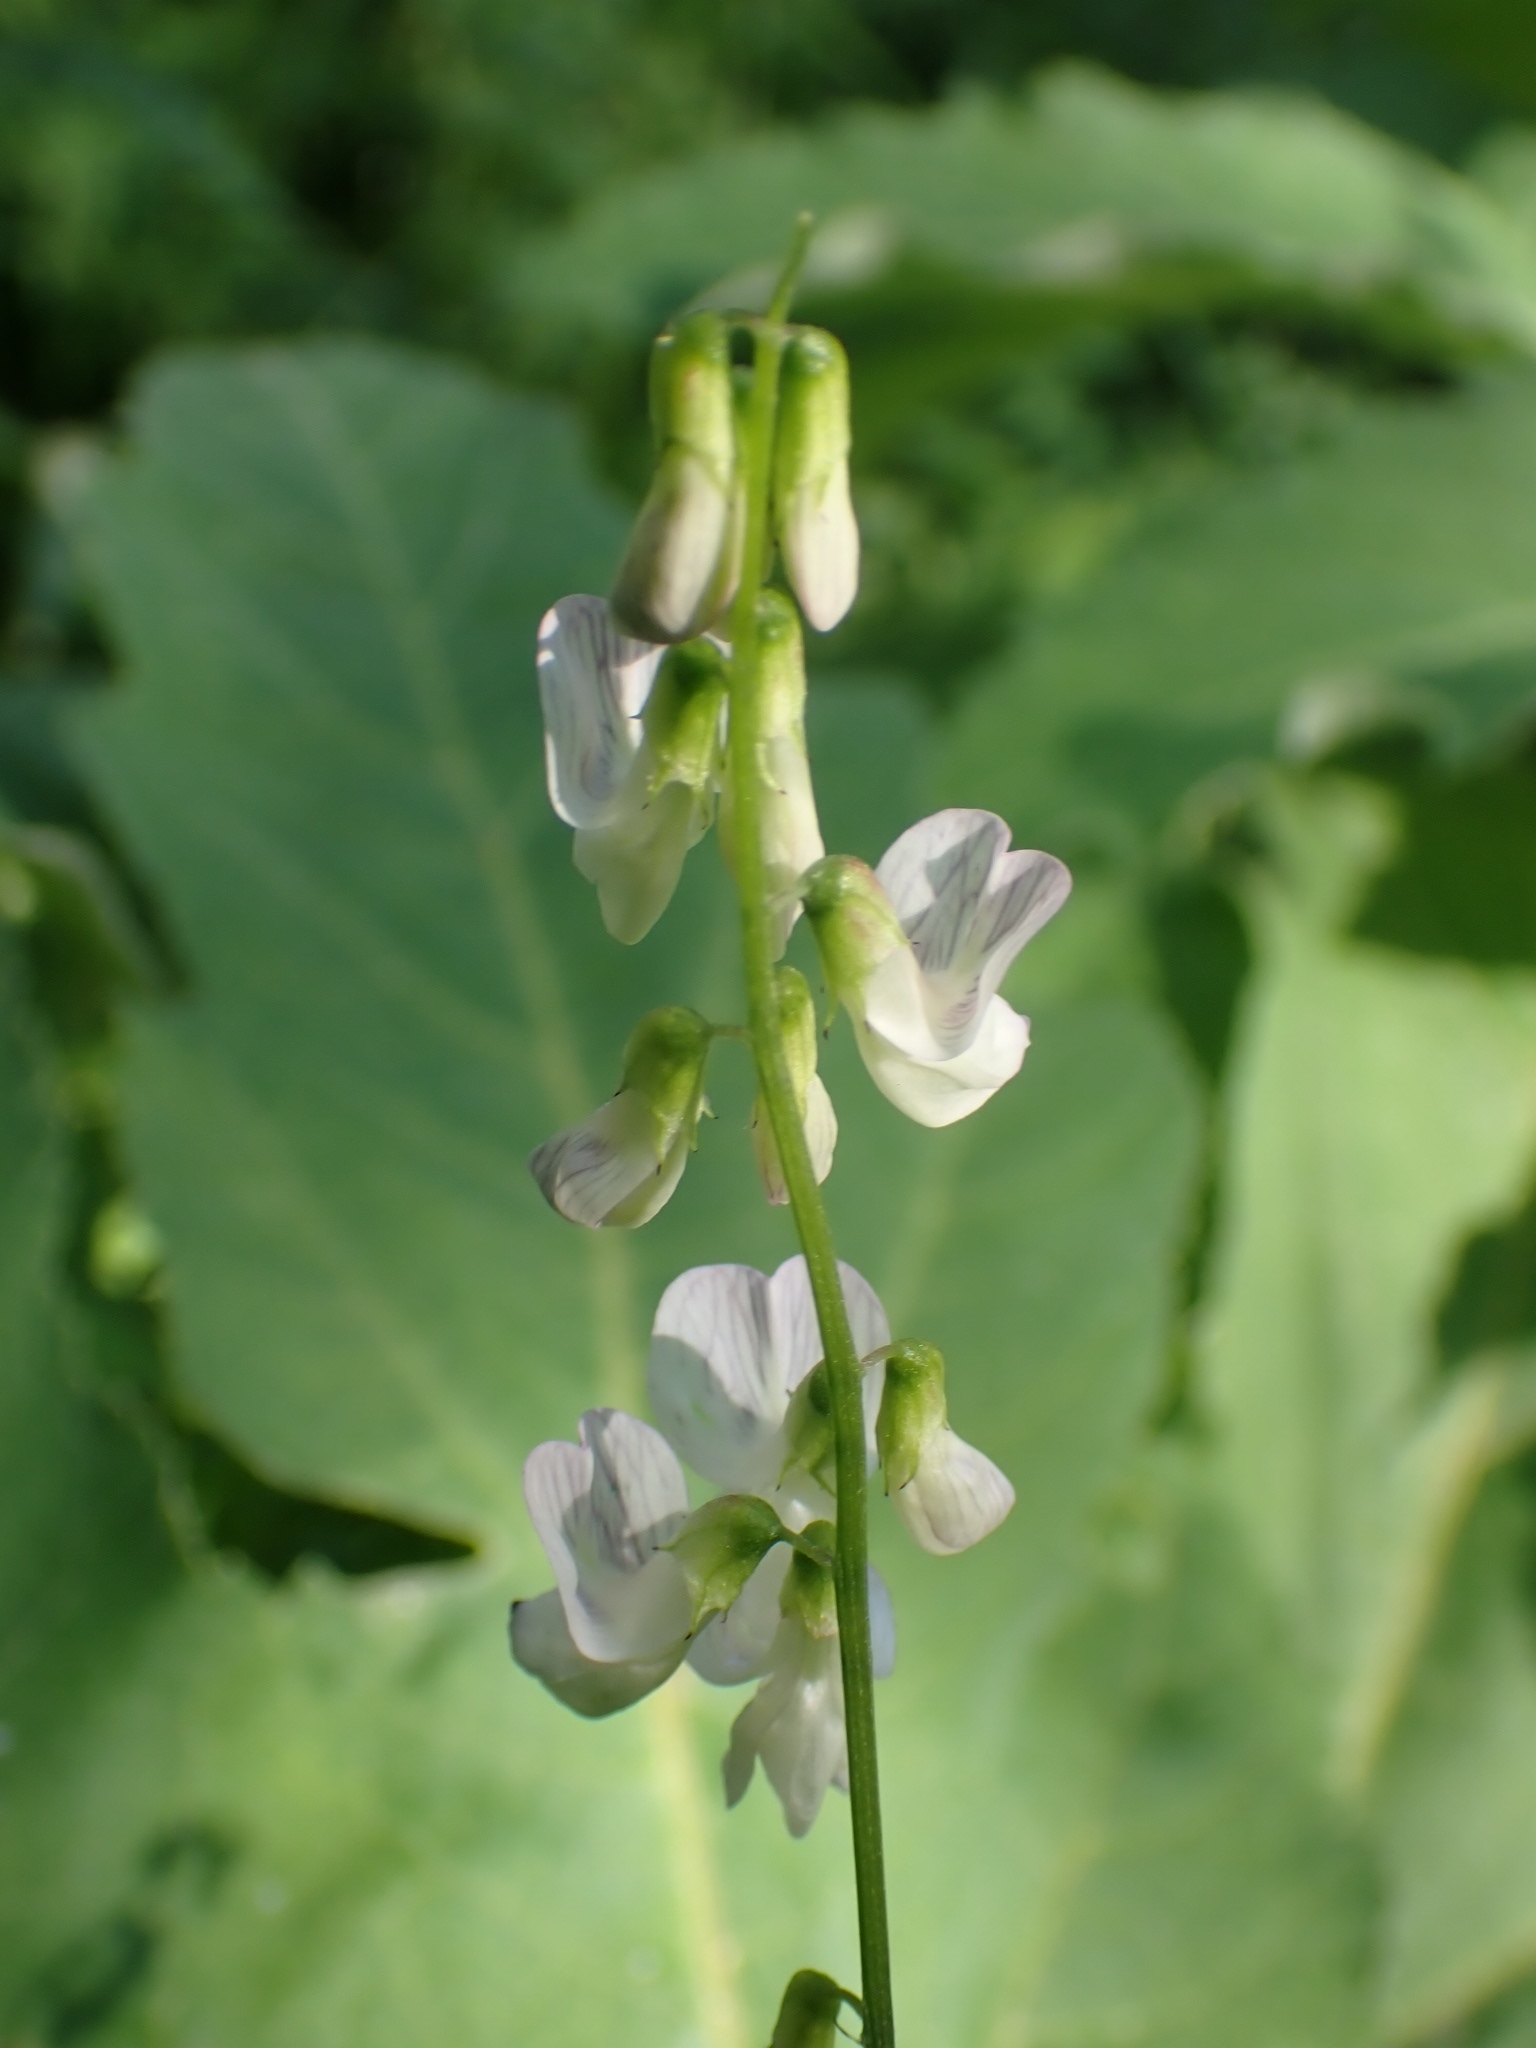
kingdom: Plantae
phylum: Tracheophyta
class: Magnoliopsida
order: Fabales
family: Fabaceae
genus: Vicia
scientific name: Vicia sylvatica
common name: Wood vetch
